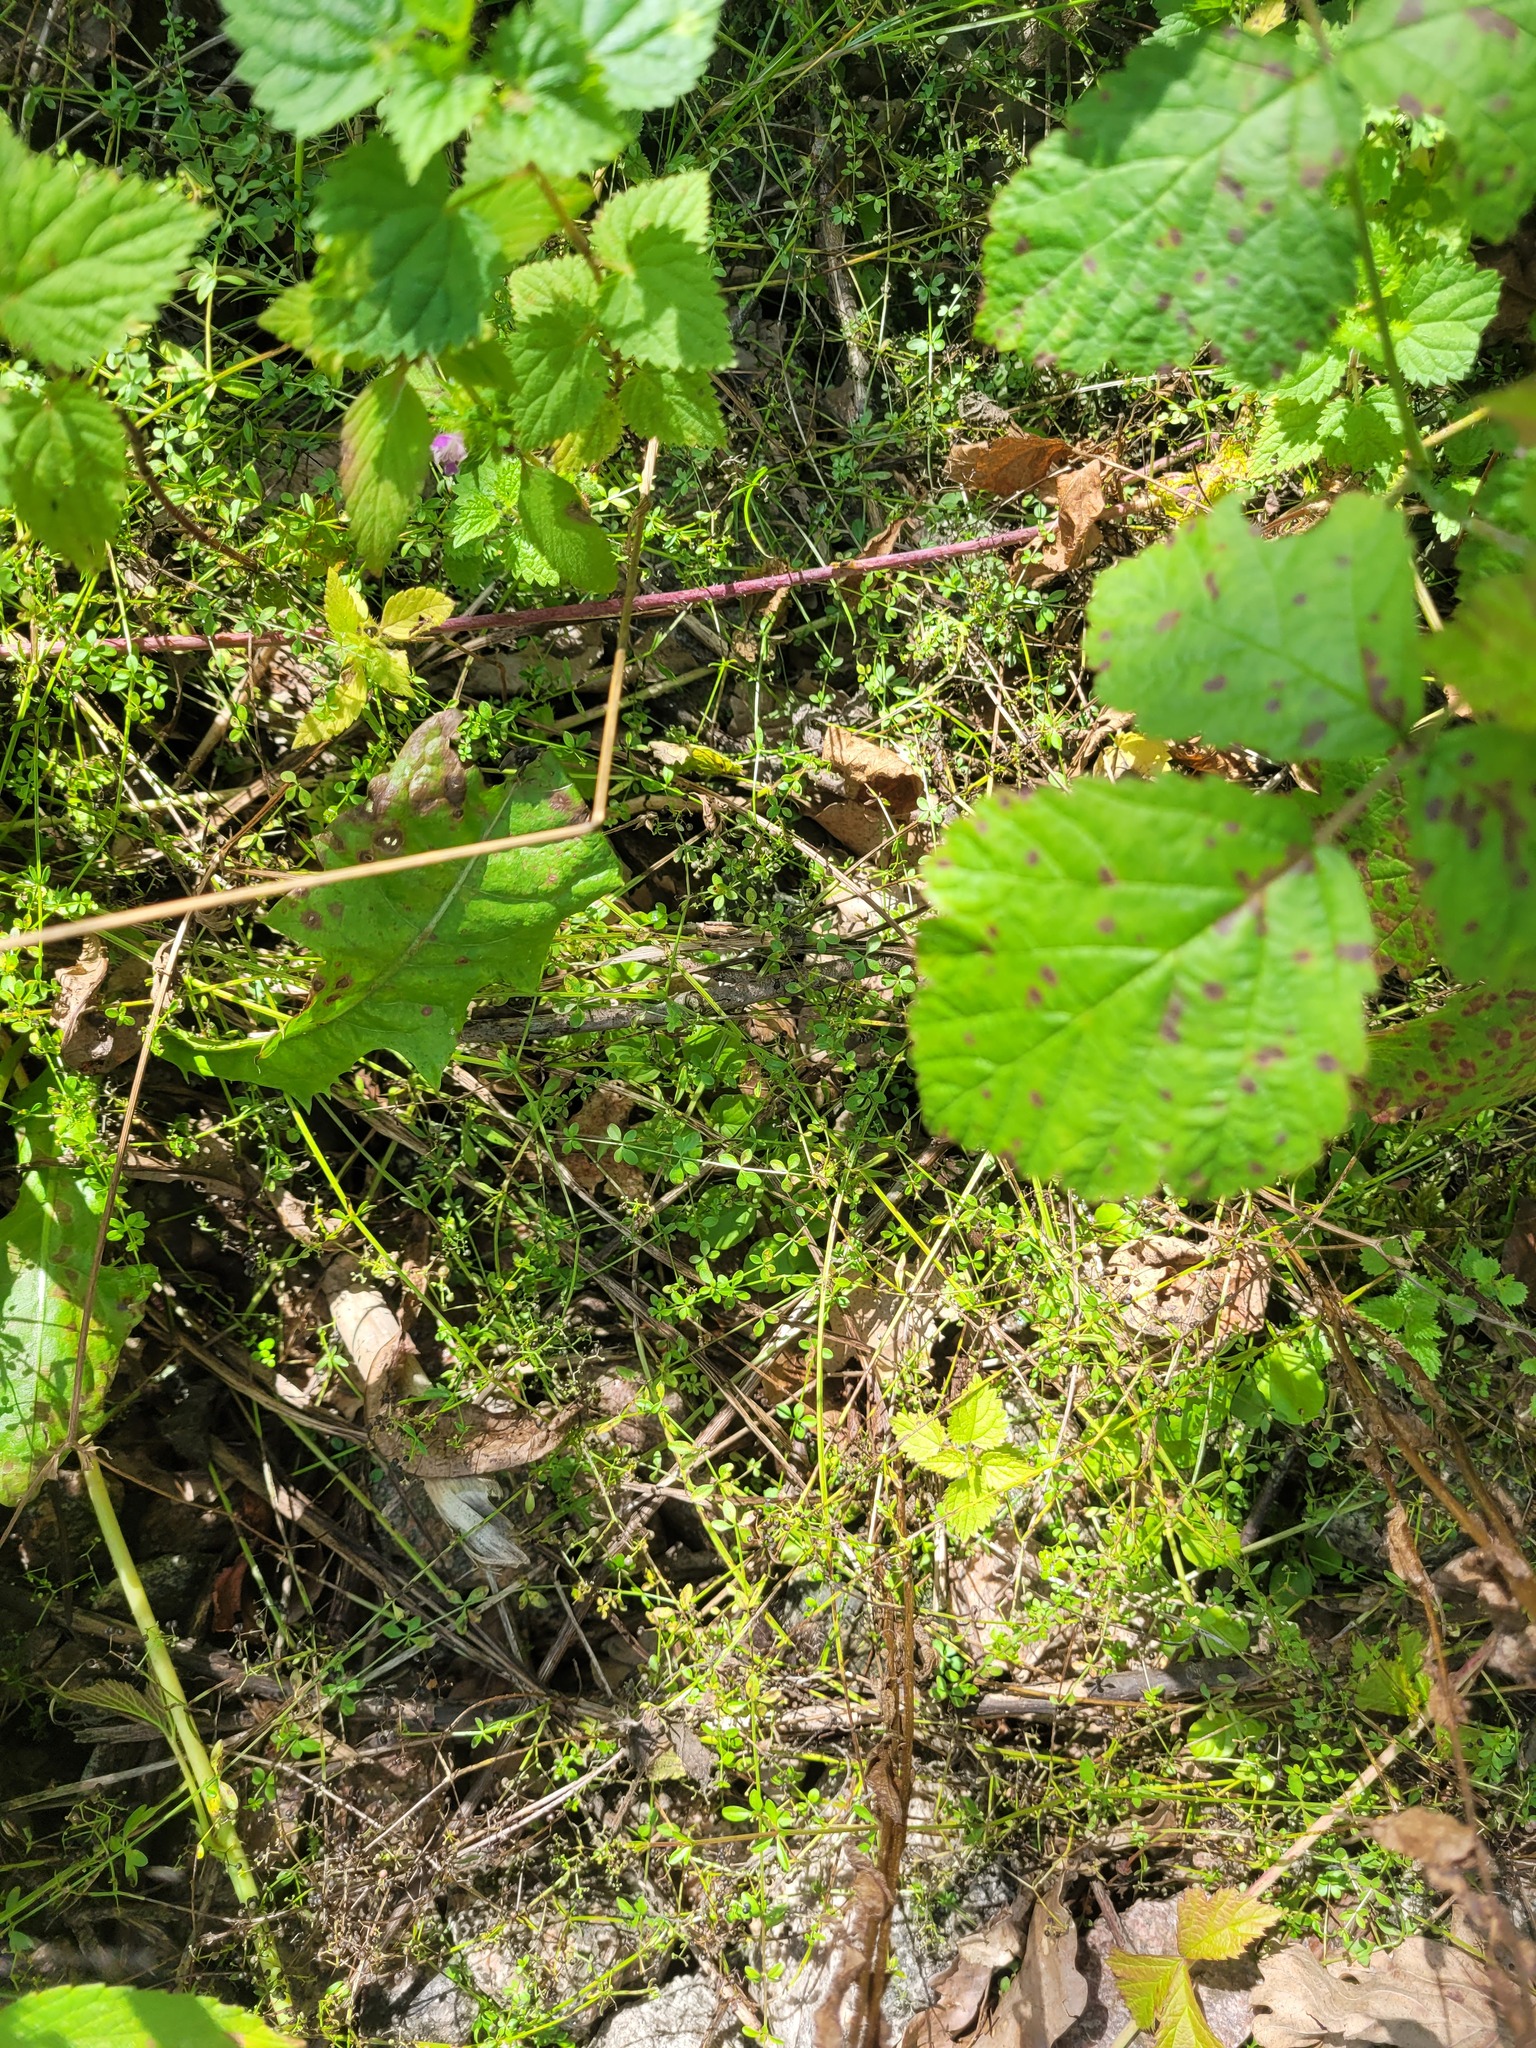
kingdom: Plantae
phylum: Tracheophyta
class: Magnoliopsida
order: Gentianales
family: Rubiaceae
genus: Galium
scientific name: Galium palustre
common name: Common marsh-bedstraw
